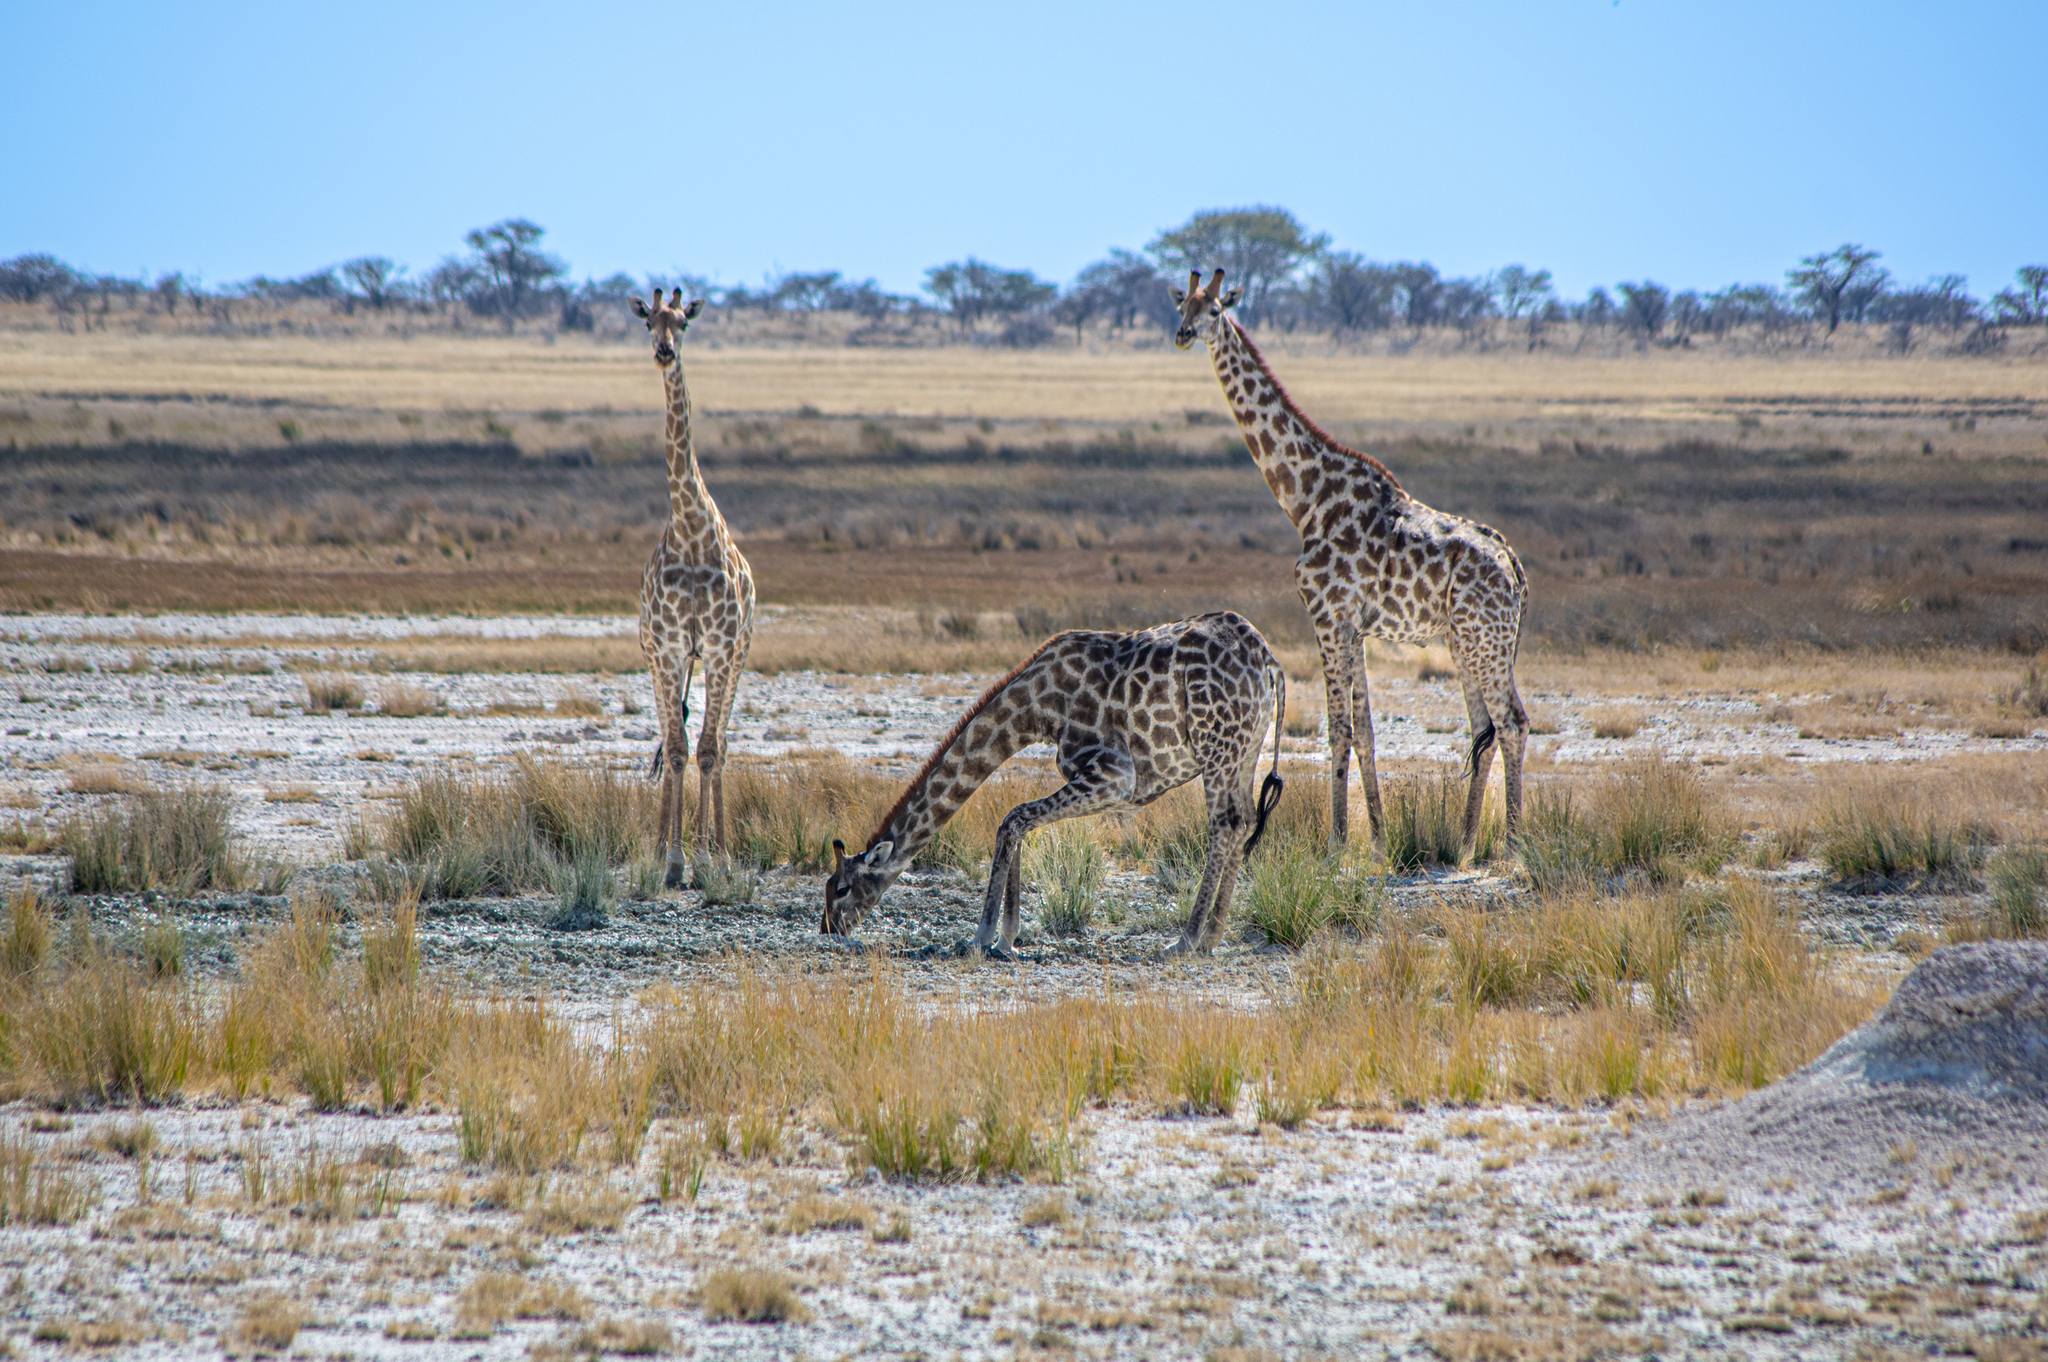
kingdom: Animalia
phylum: Chordata
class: Mammalia
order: Artiodactyla
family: Giraffidae
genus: Giraffa
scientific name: Giraffa giraffa
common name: Southern giraffe
